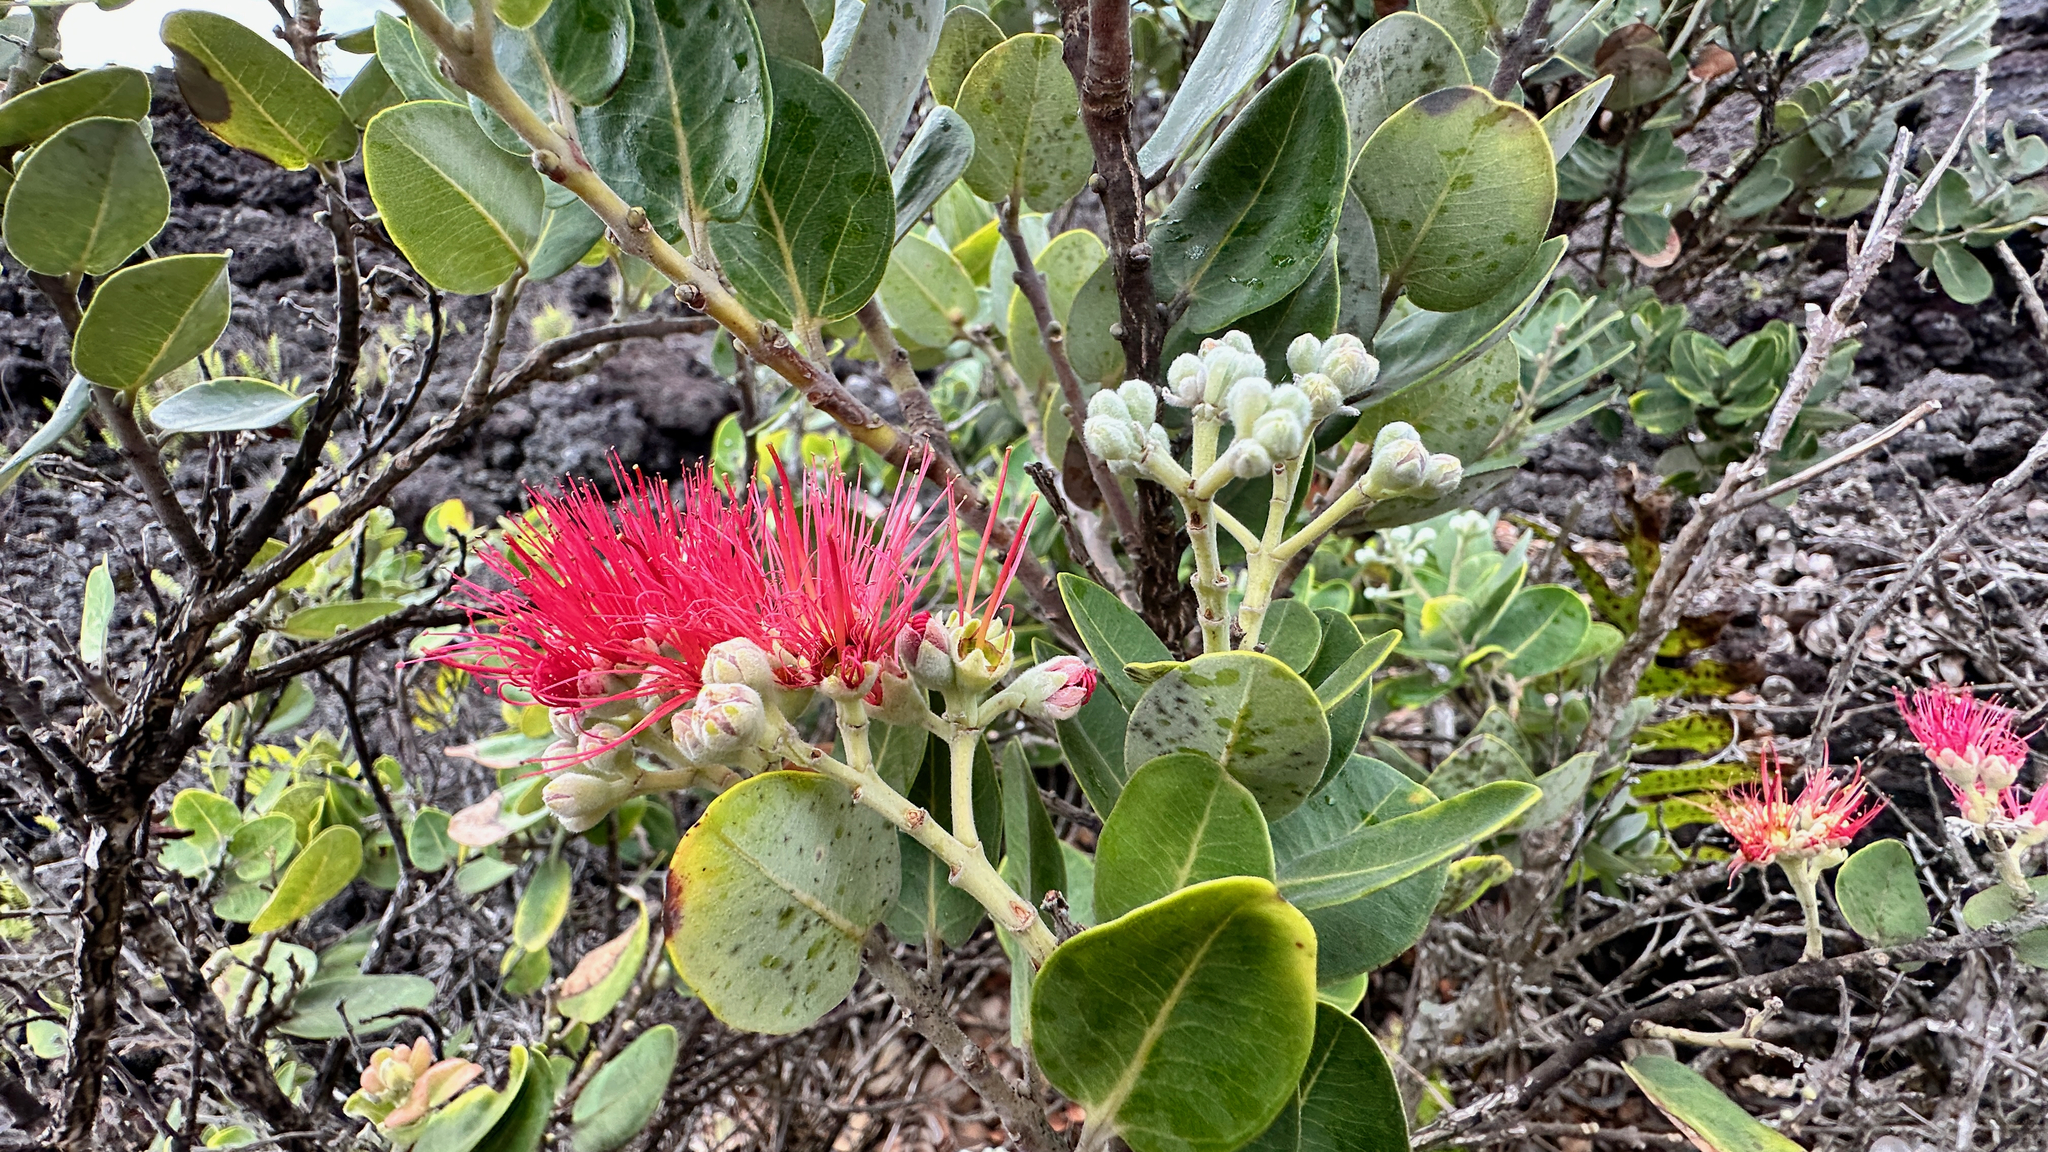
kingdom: Plantae
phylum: Tracheophyta
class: Magnoliopsida
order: Myrtales
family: Myrtaceae
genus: Metrosideros
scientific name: Metrosideros polymorpha
